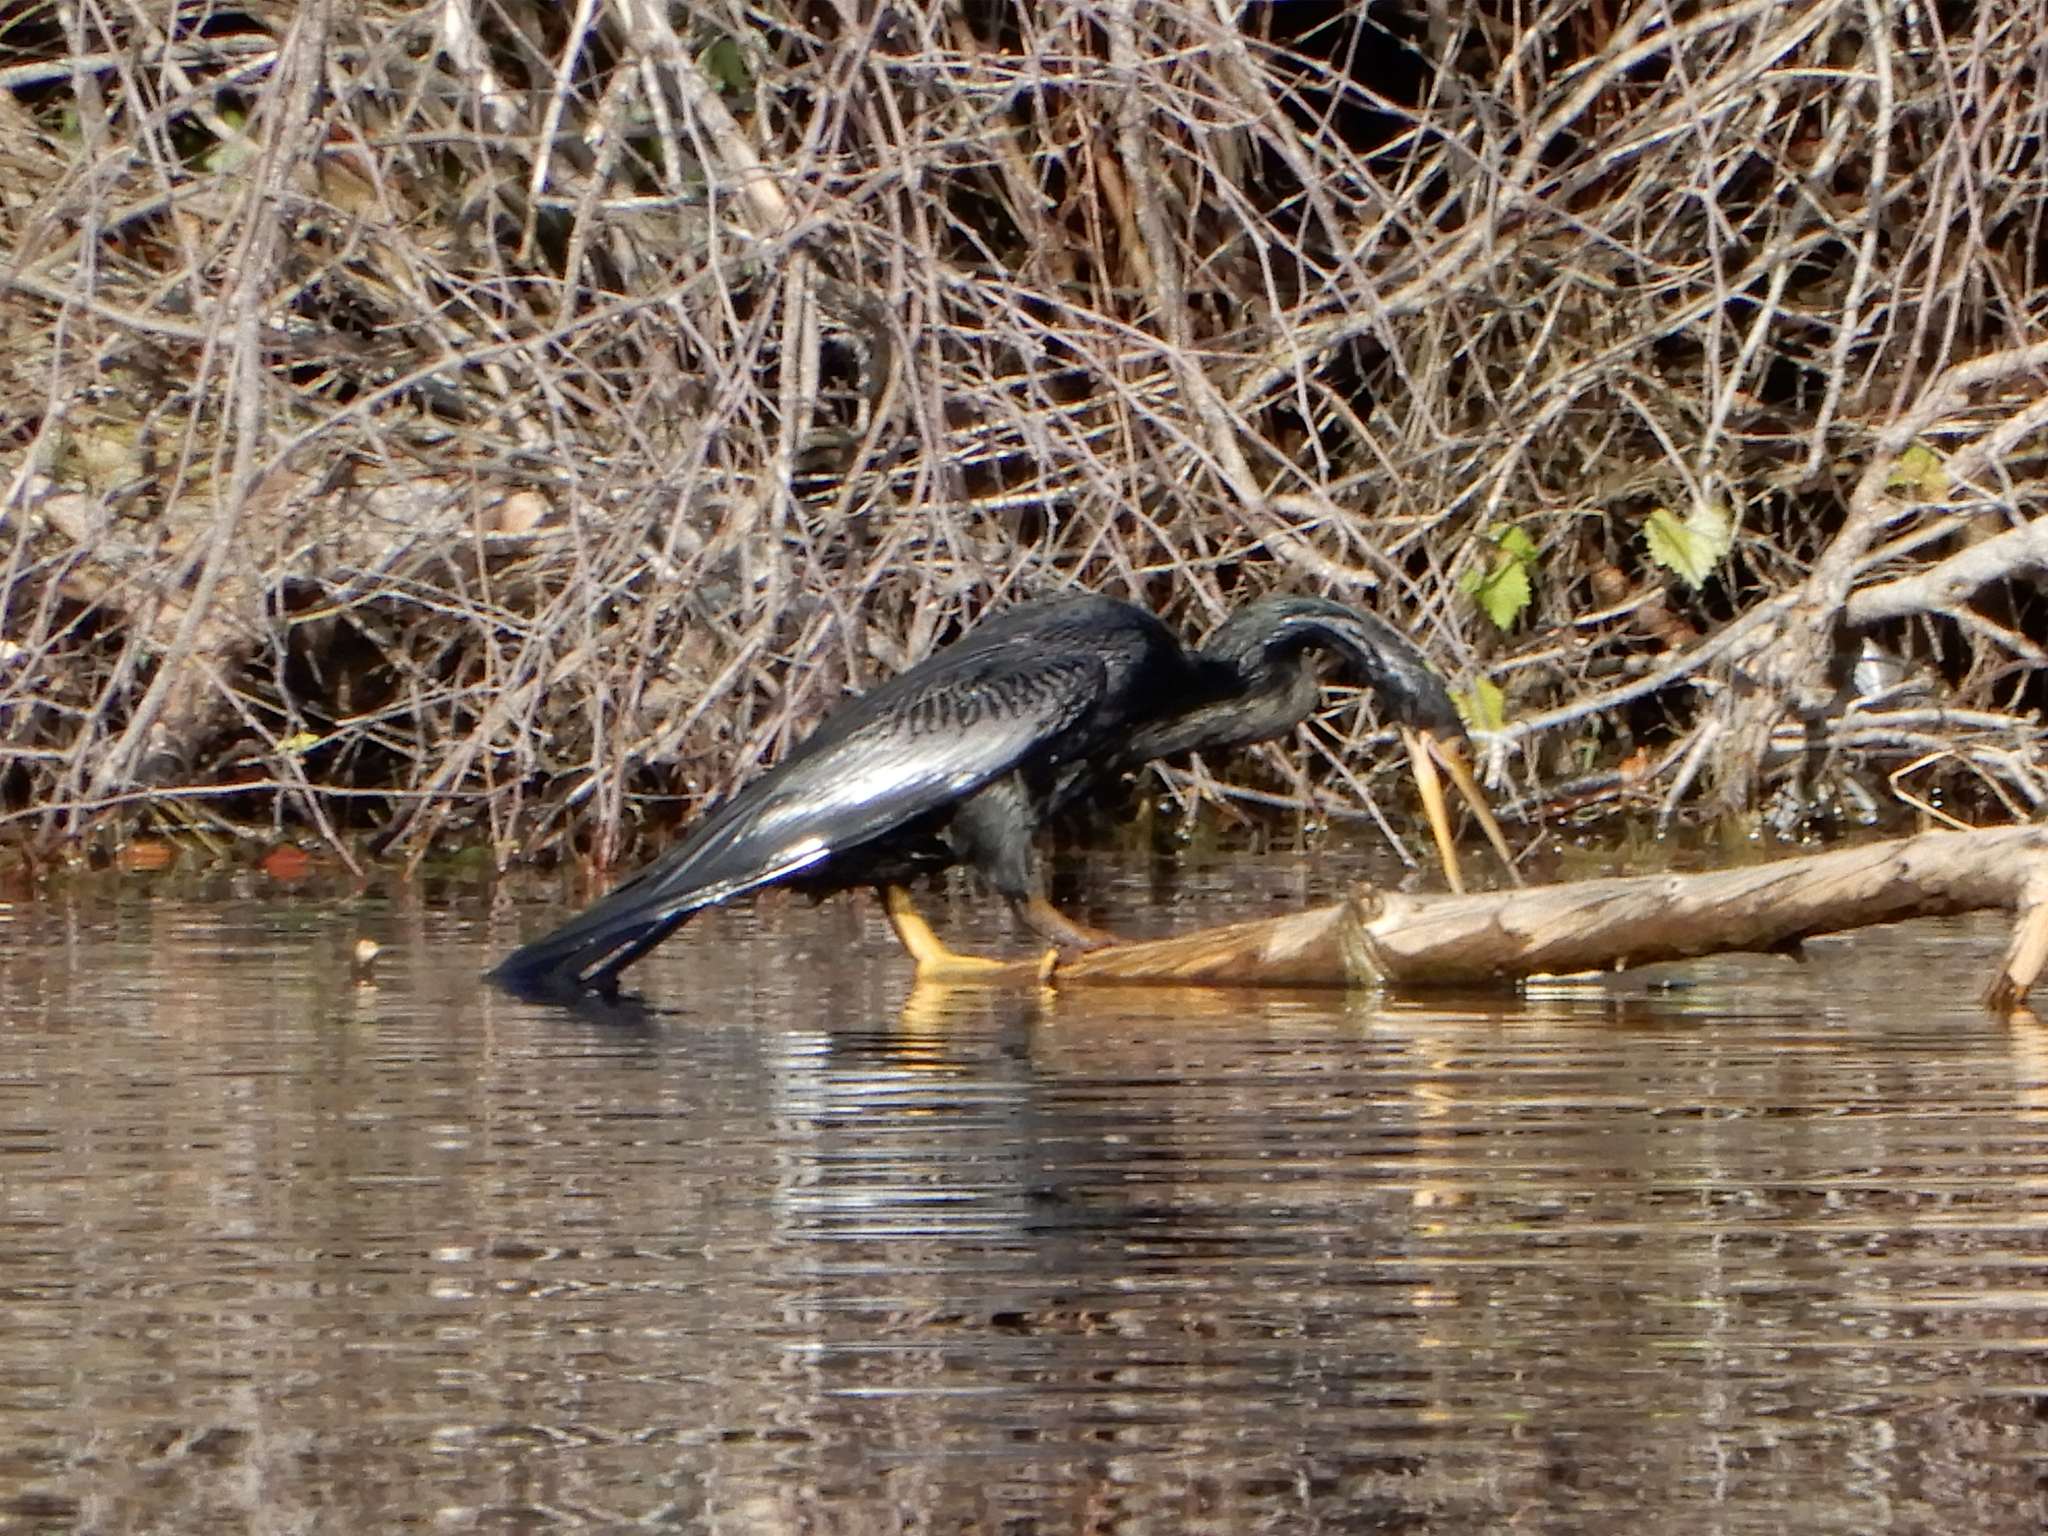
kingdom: Animalia
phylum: Chordata
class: Aves
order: Suliformes
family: Anhingidae
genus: Anhinga
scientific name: Anhinga anhinga
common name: Anhinga
